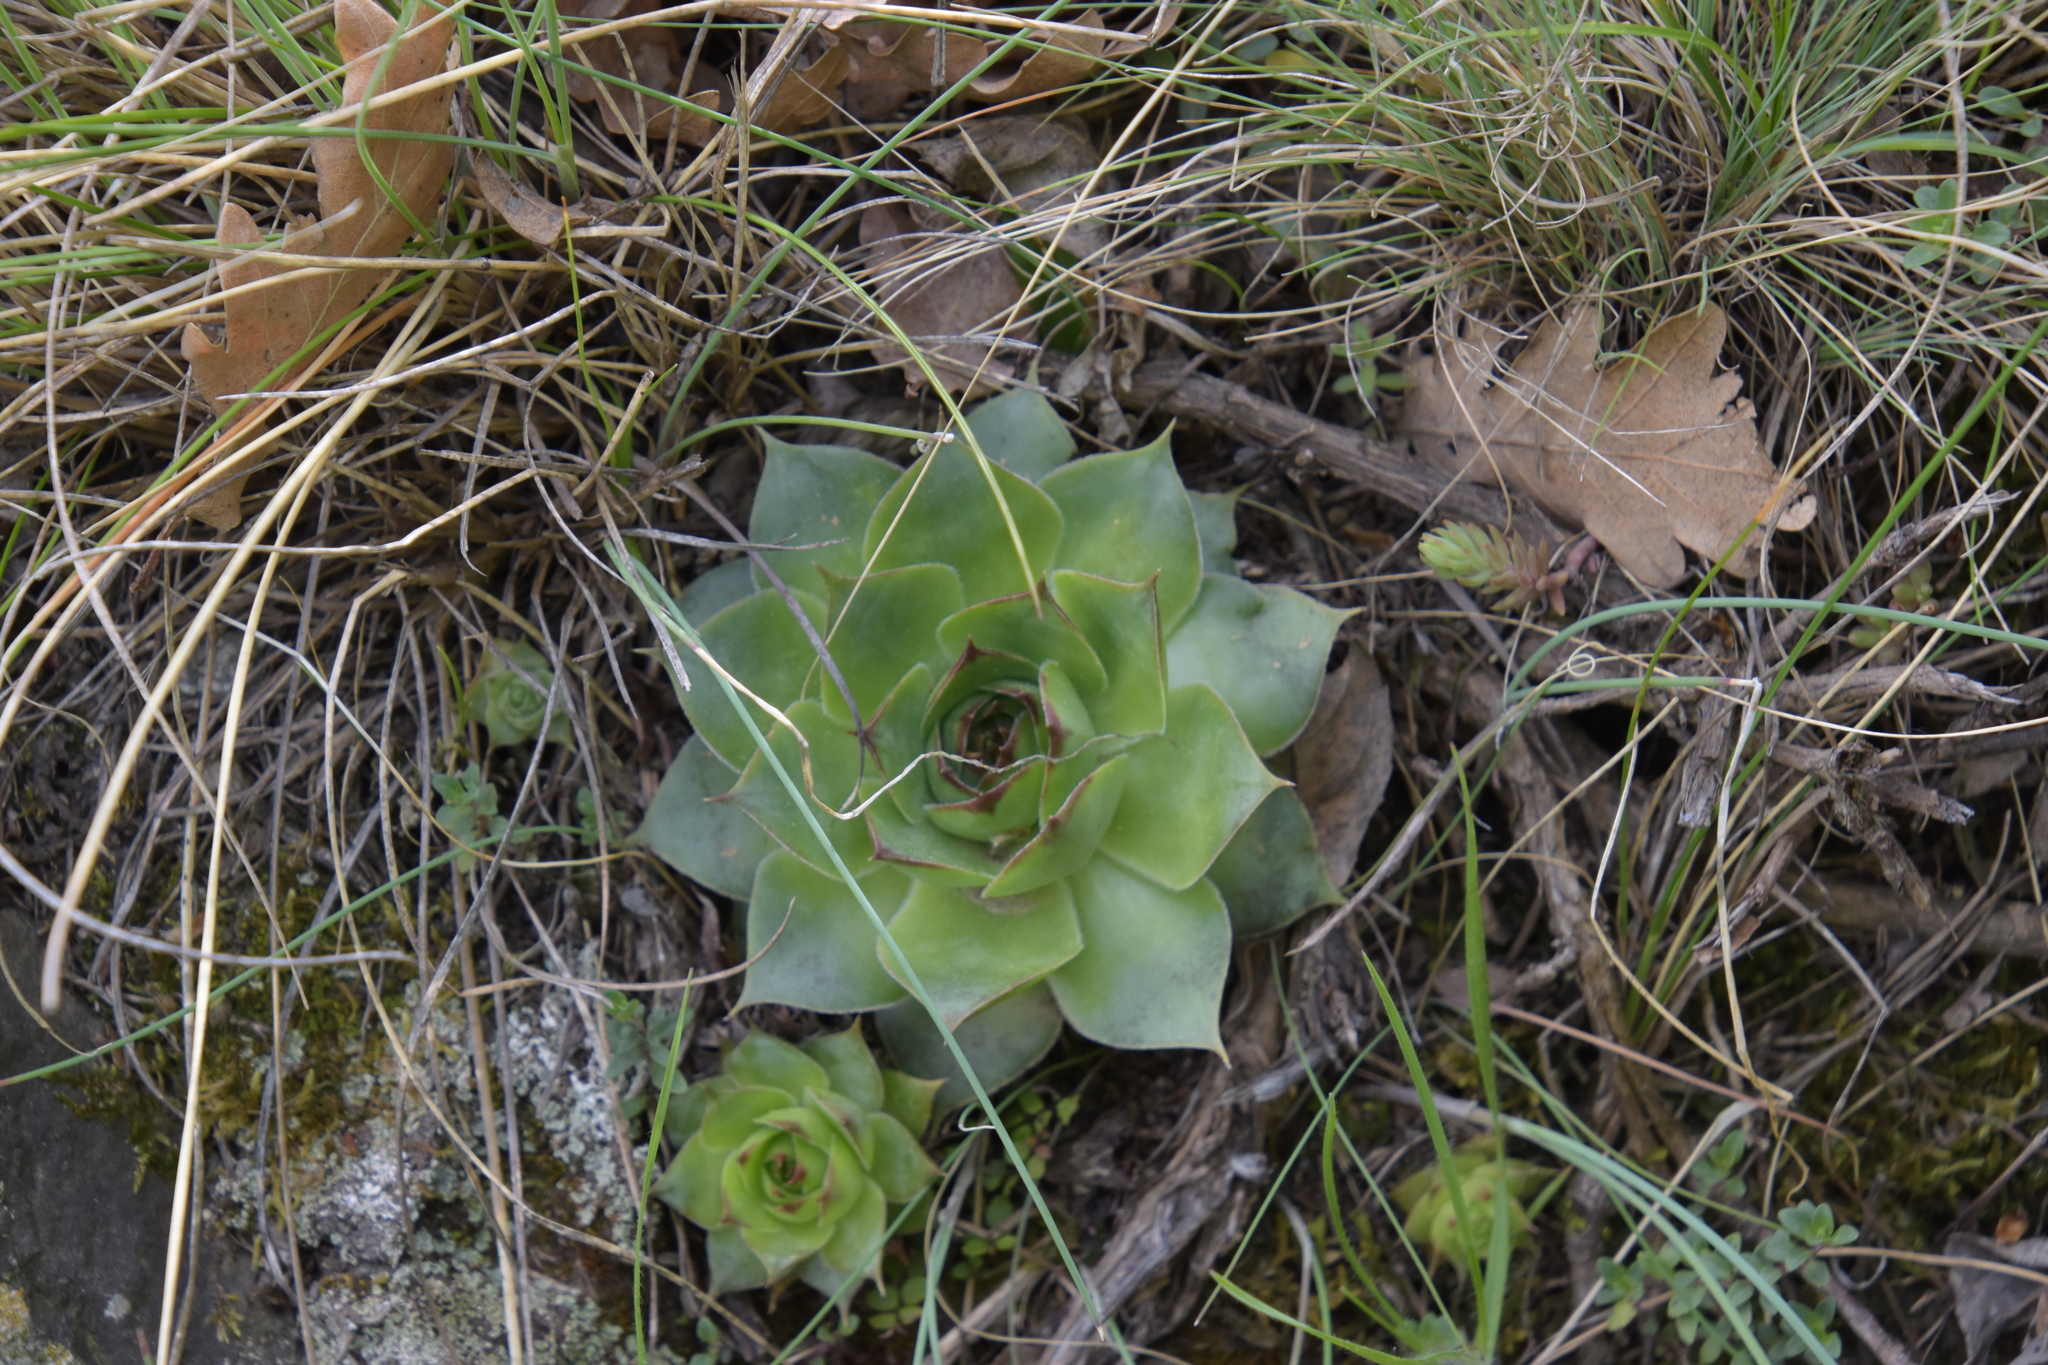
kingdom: Plantae
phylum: Tracheophyta
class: Magnoliopsida
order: Saxifragales
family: Crassulaceae
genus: Sempervivum
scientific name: Sempervivum tectorum
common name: House-leek
